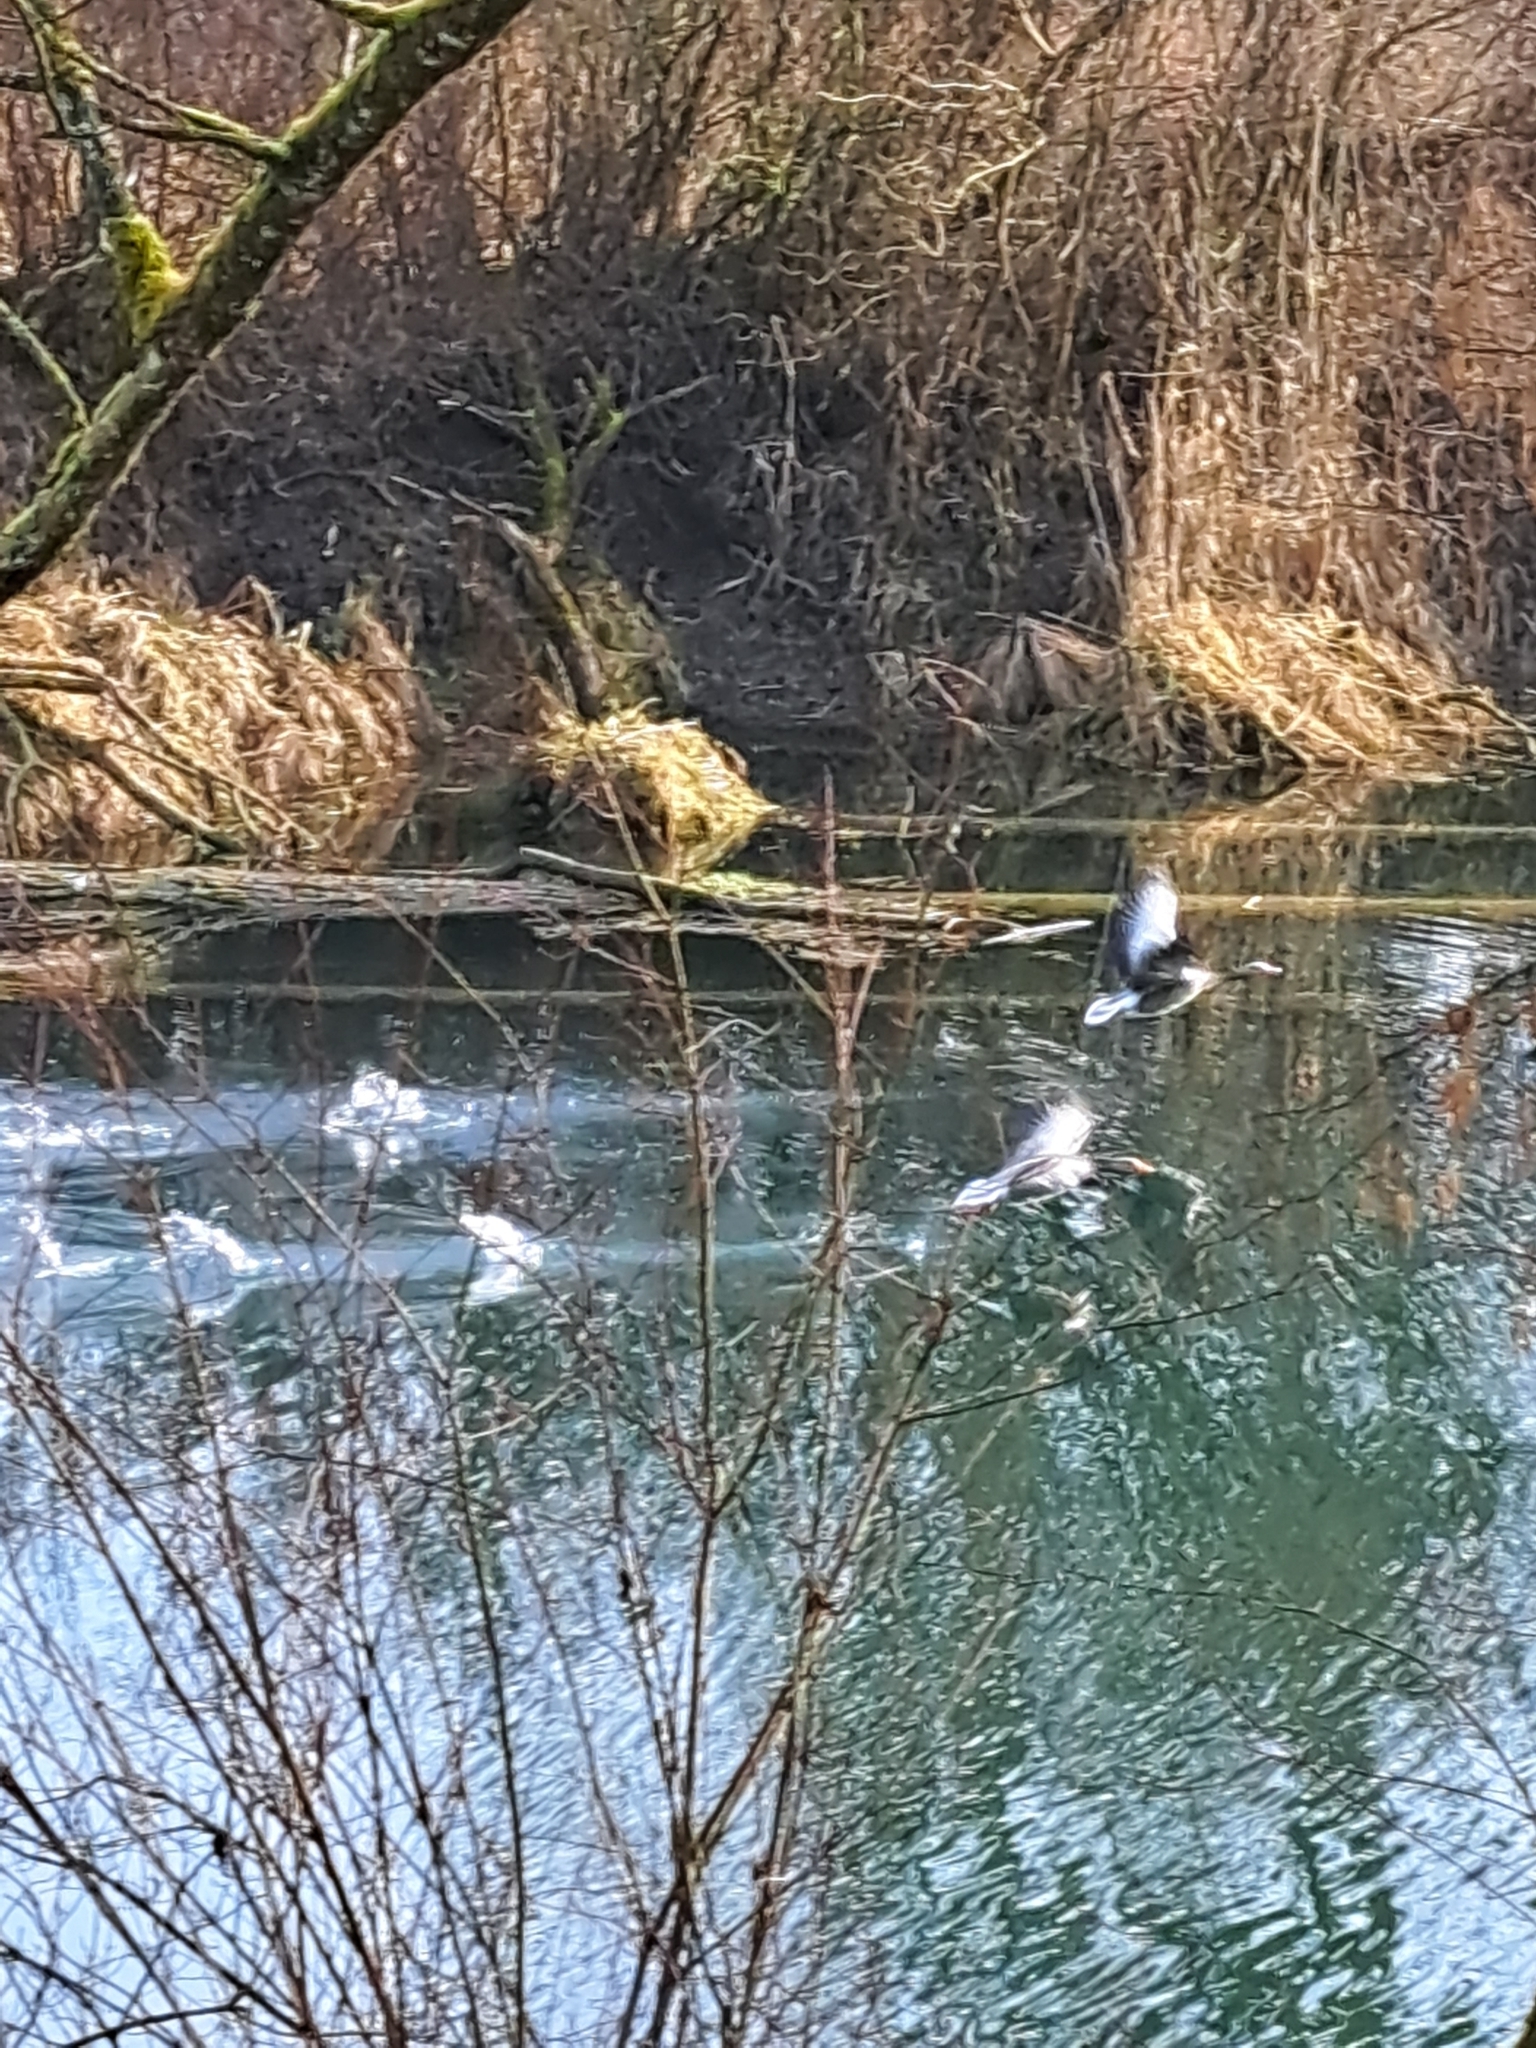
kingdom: Animalia
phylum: Chordata
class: Aves
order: Anseriformes
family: Anatidae
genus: Anser
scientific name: Anser anser
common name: Greylag goose
